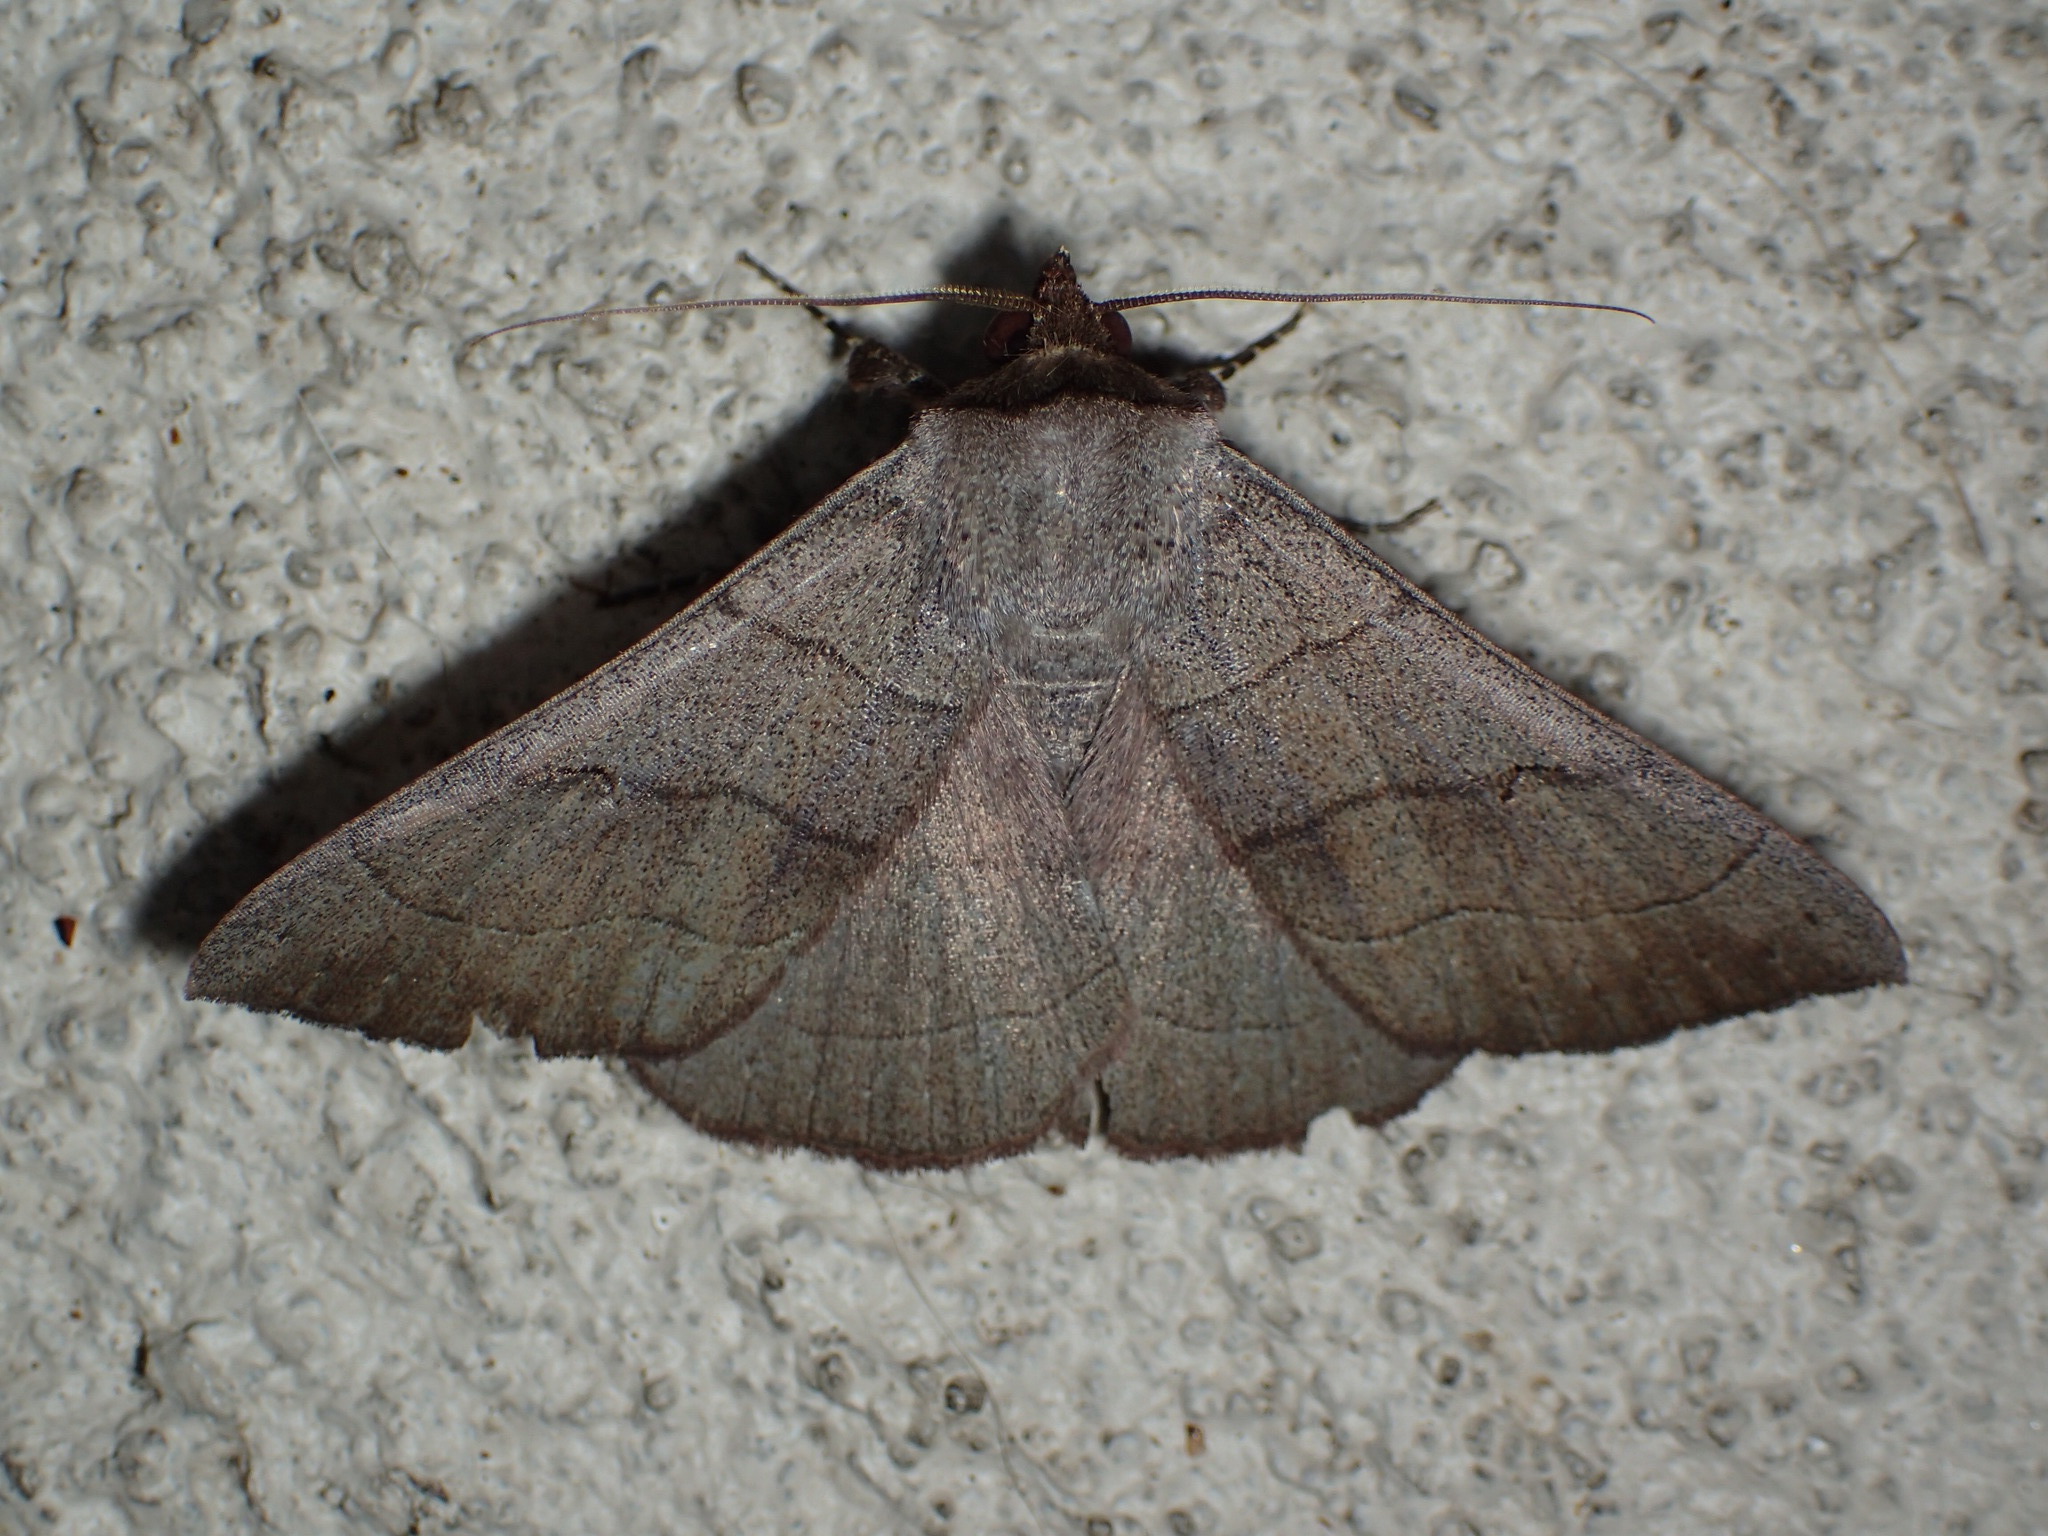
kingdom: Animalia
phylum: Arthropoda
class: Insecta
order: Lepidoptera
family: Erebidae
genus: Panopoda
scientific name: Panopoda carneicosta
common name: Brown panopoda moth
